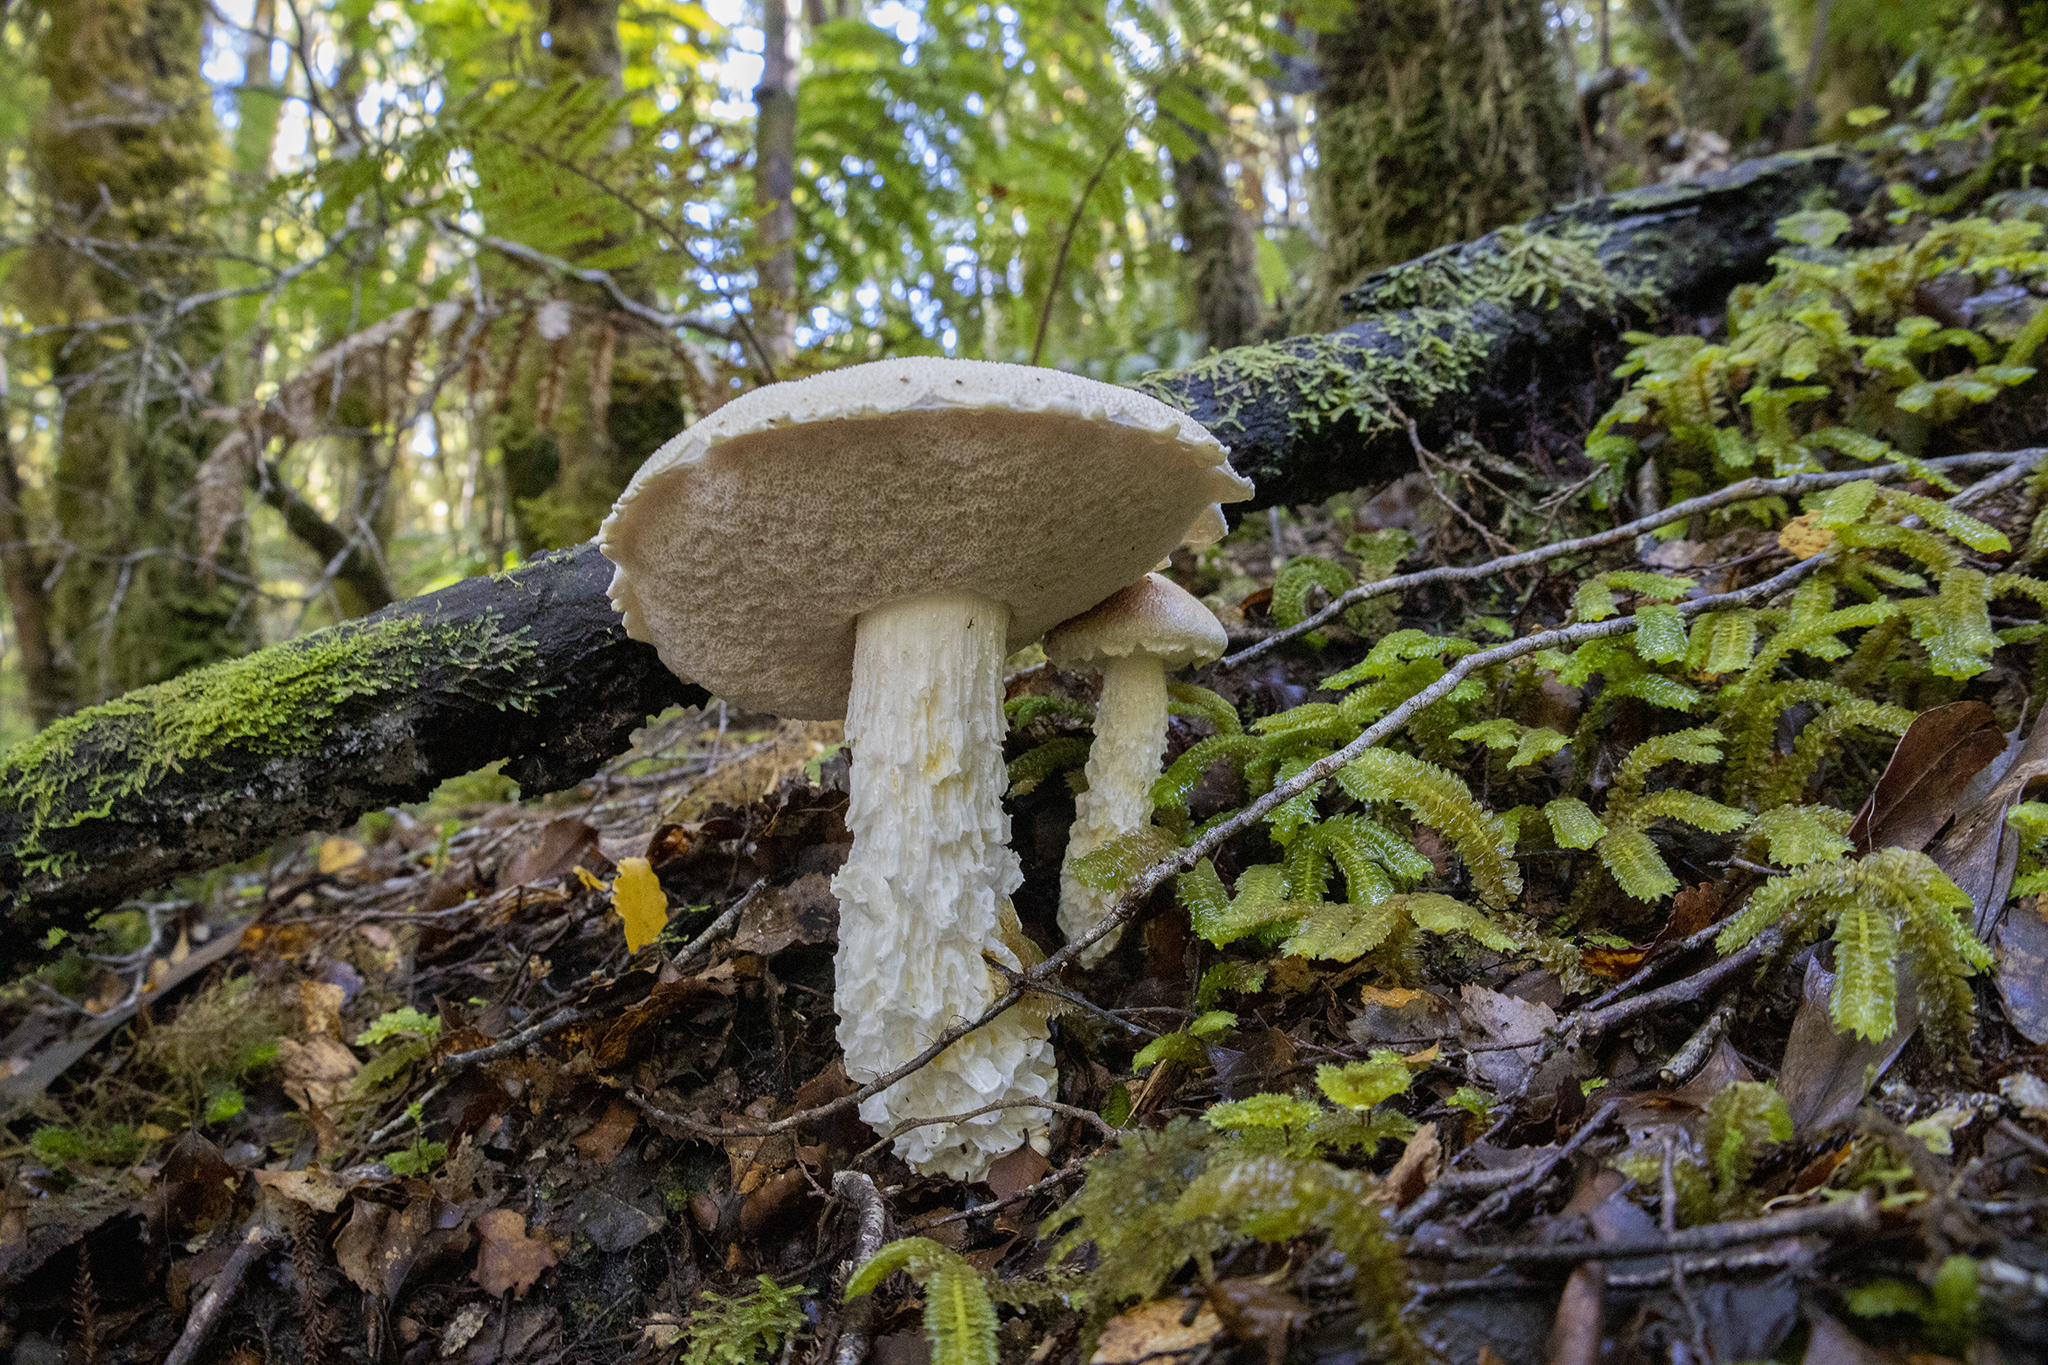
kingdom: Fungi
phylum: Basidiomycota
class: Agaricomycetes
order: Boletales
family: Boletaceae
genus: Fistulinella
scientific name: Fistulinella nivea
